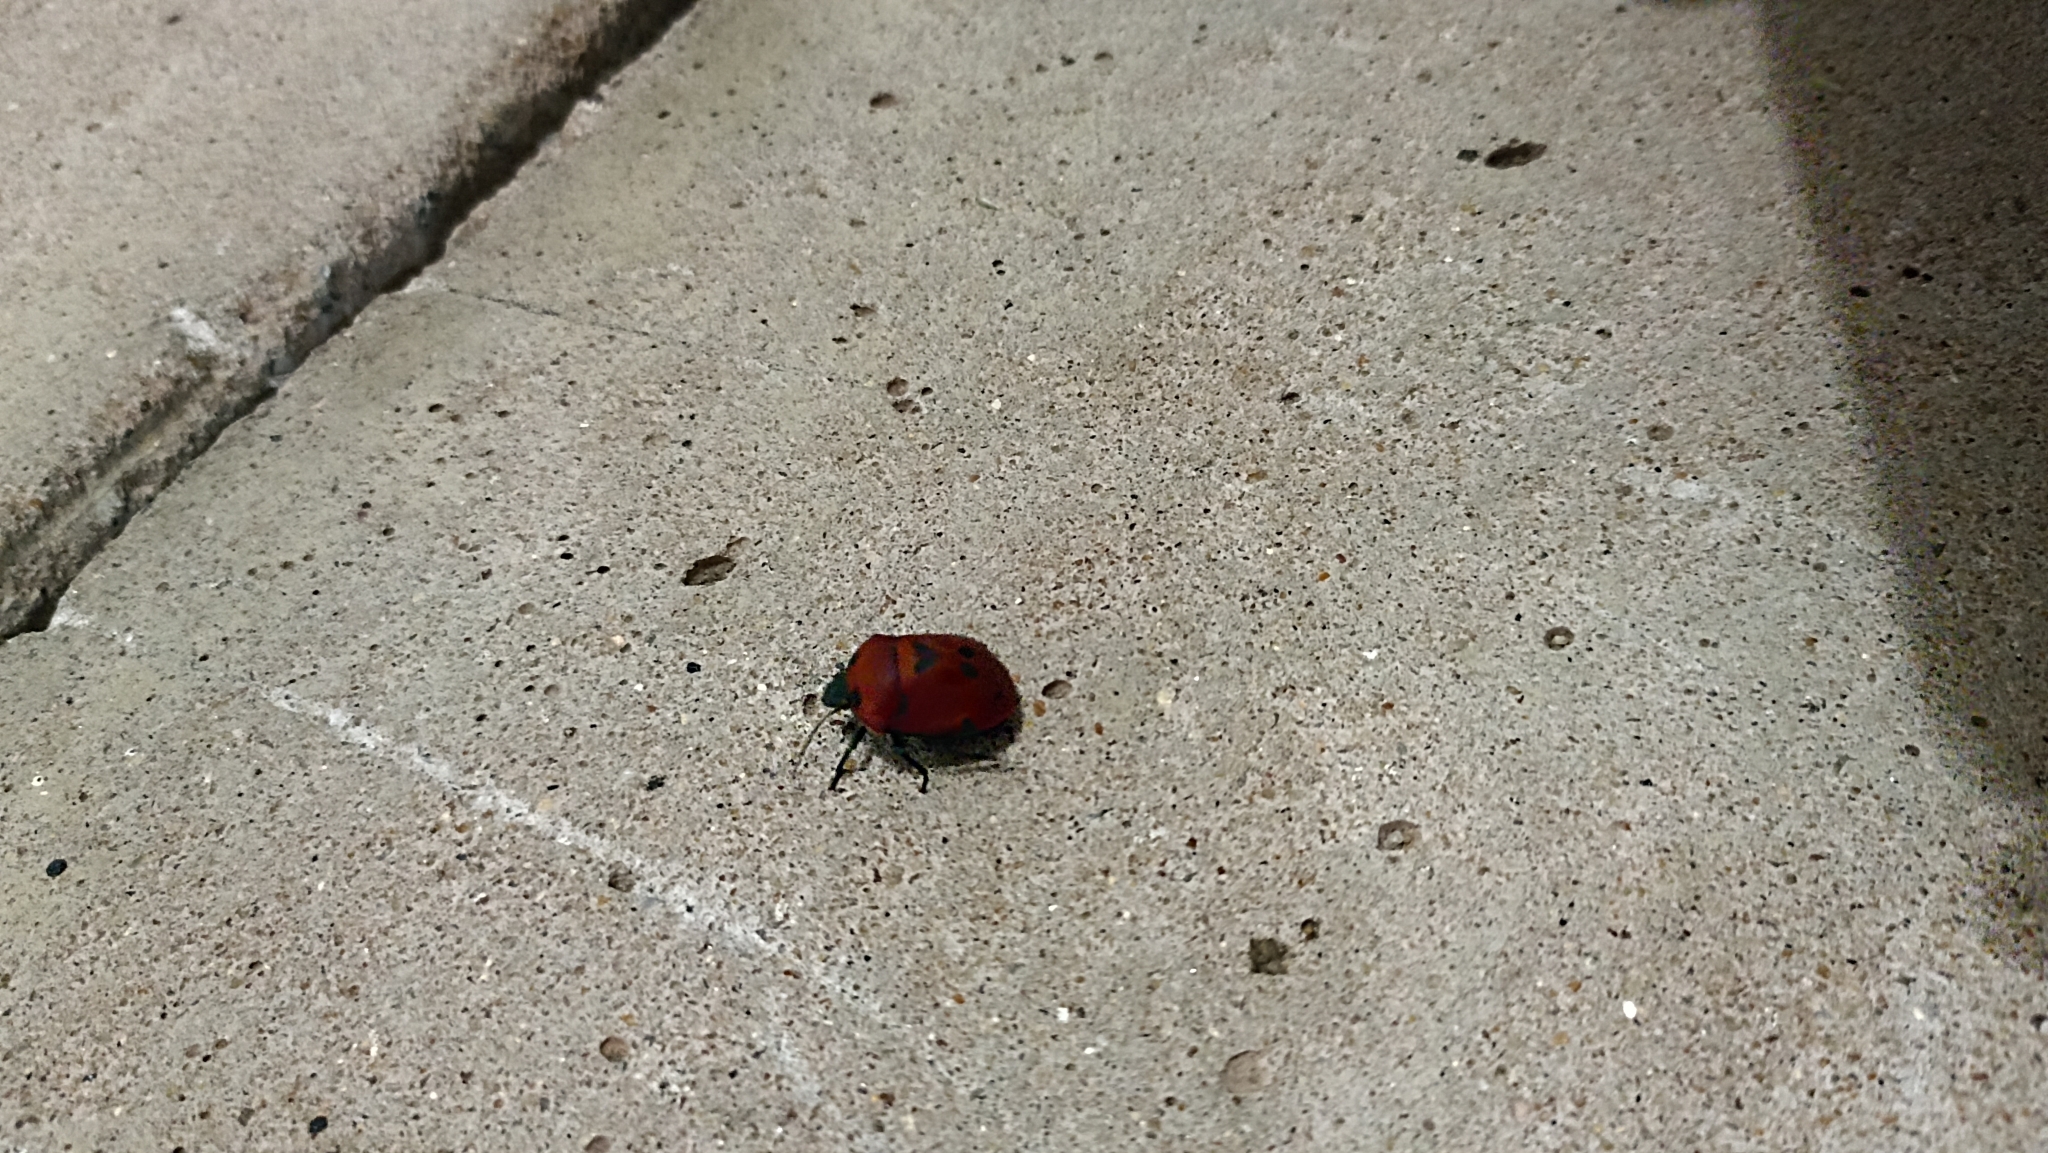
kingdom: Animalia
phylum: Arthropoda
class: Insecta
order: Hemiptera
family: Scutelleridae
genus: Pachycoris
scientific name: Pachycoris torridus
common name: Torrid jewel bug
